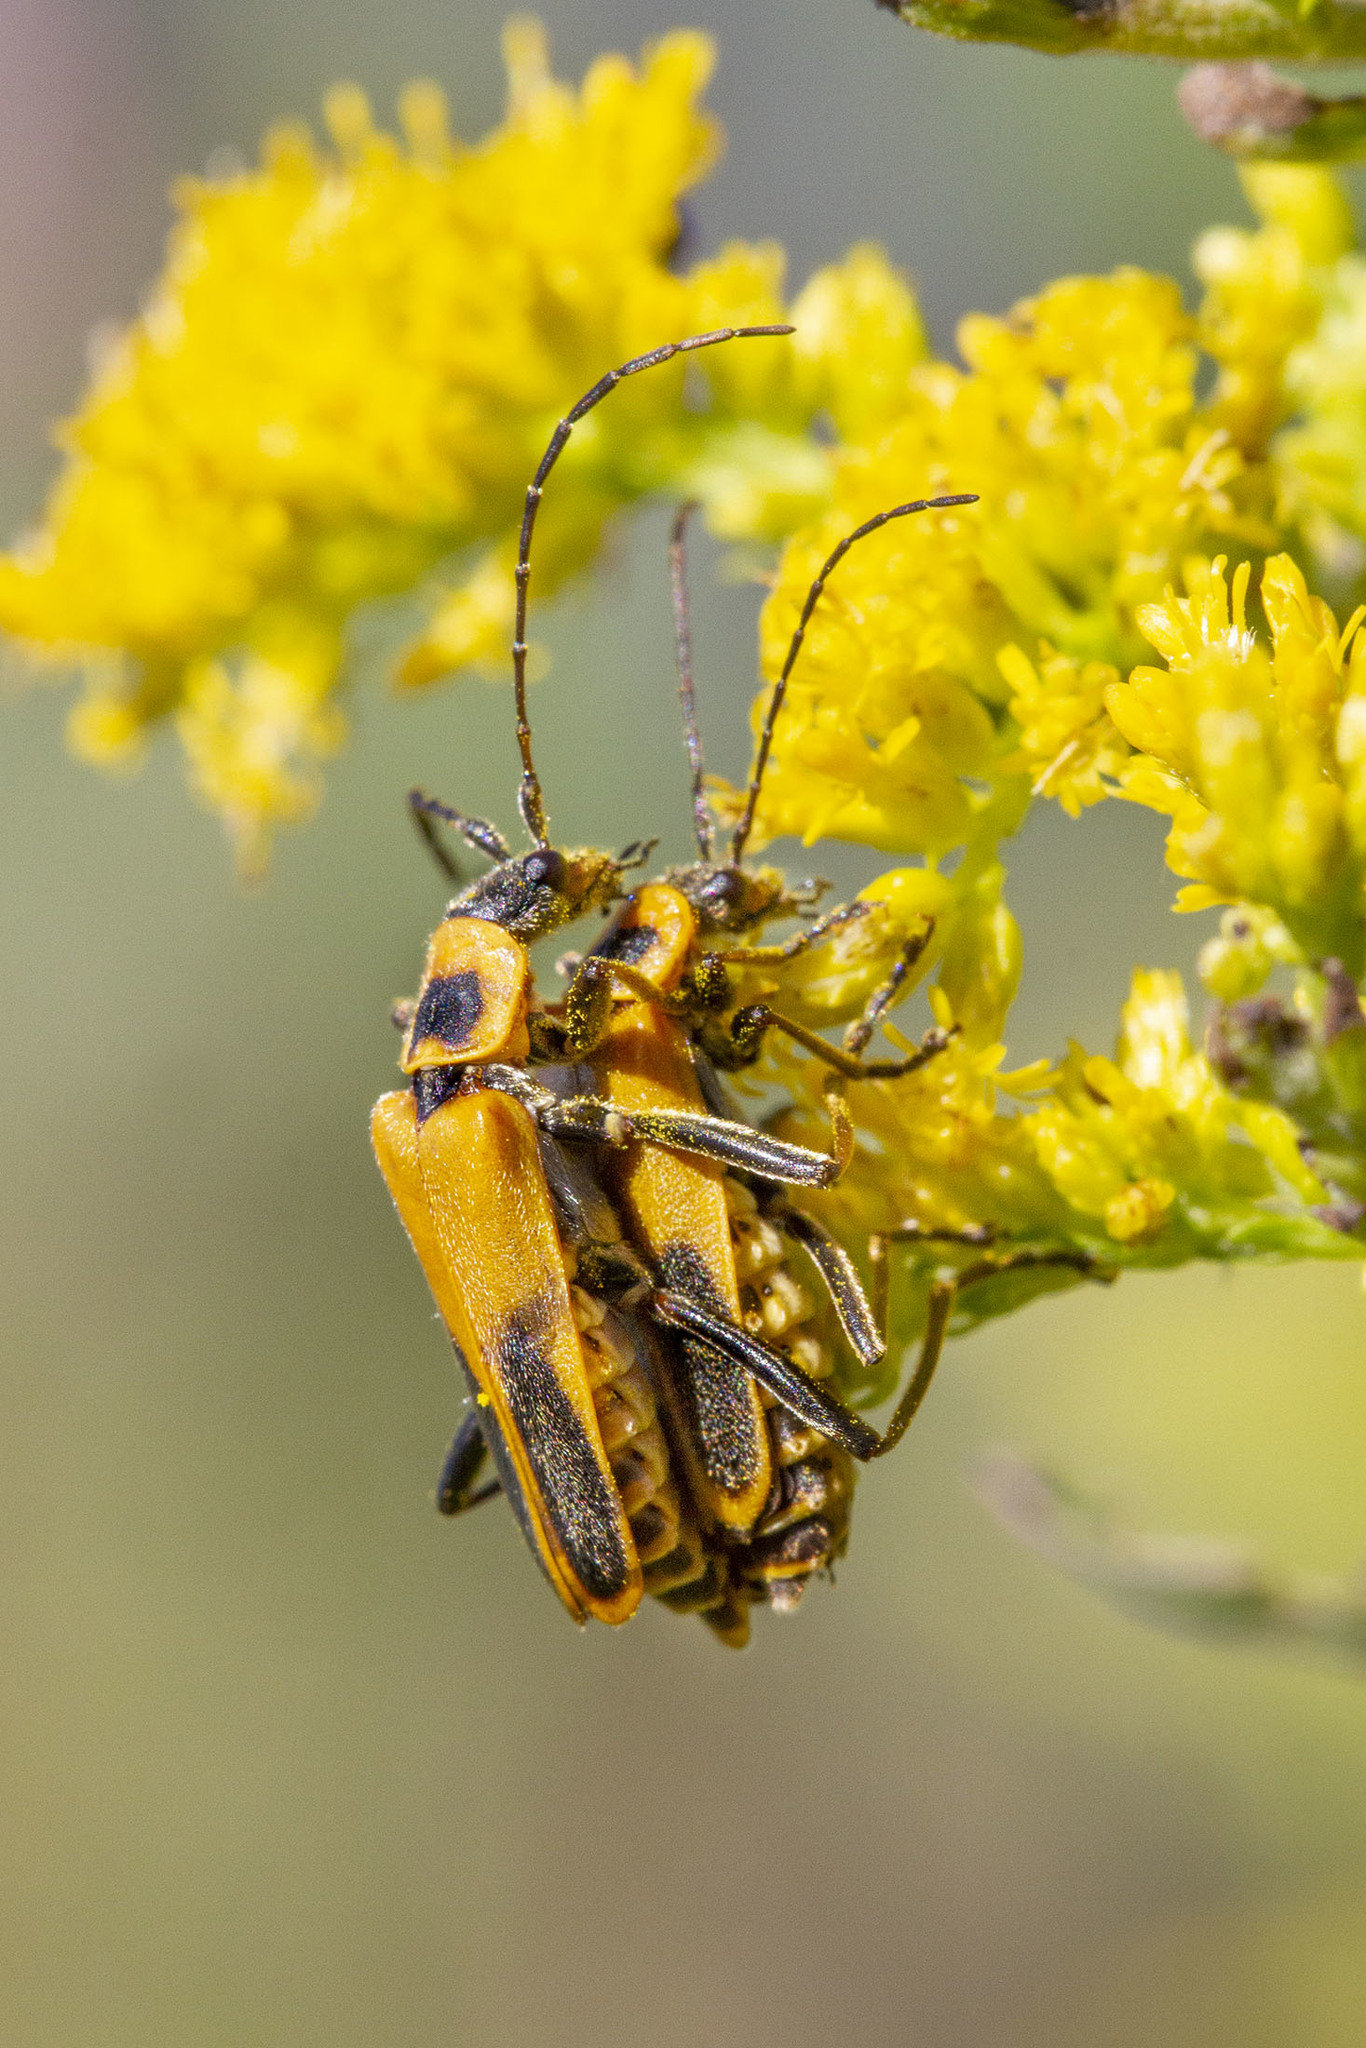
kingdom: Animalia
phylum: Arthropoda
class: Insecta
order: Coleoptera
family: Cantharidae
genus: Chauliognathus
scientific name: Chauliognathus pensylvanicus
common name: Goldenrod soldier beetle
